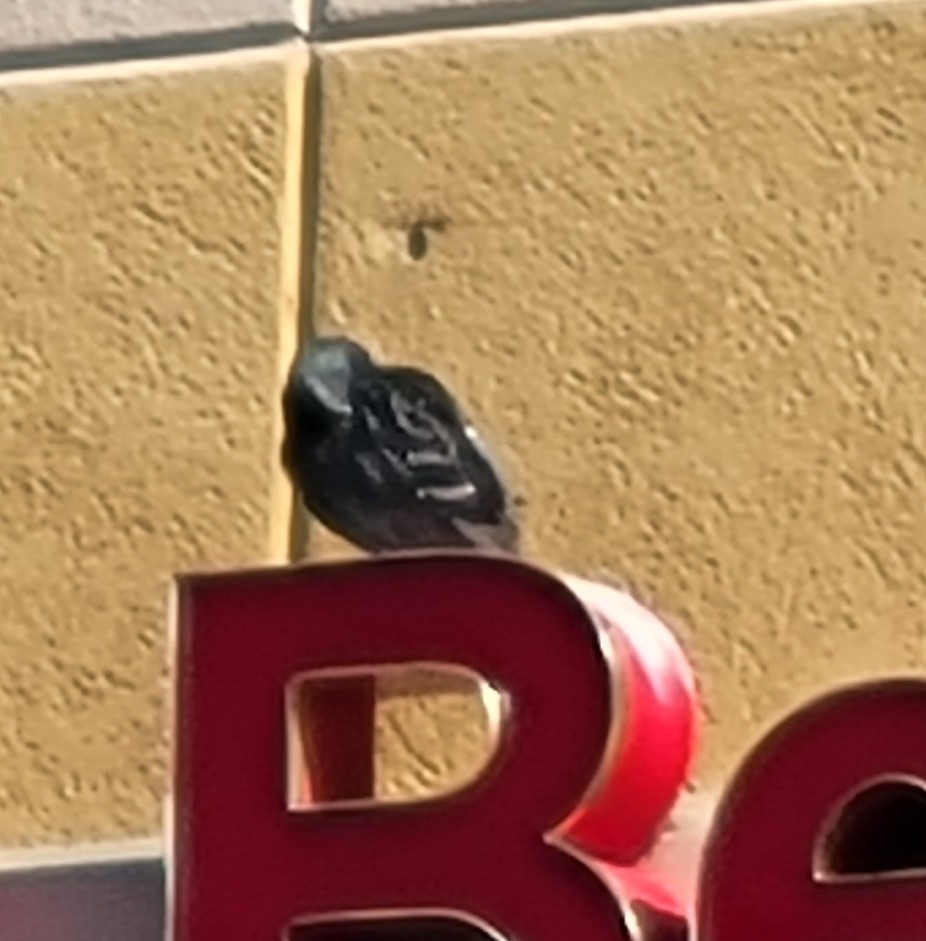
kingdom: Animalia
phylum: Chordata
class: Aves
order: Columbiformes
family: Columbidae
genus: Columba
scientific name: Columba livia
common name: Rock pigeon
